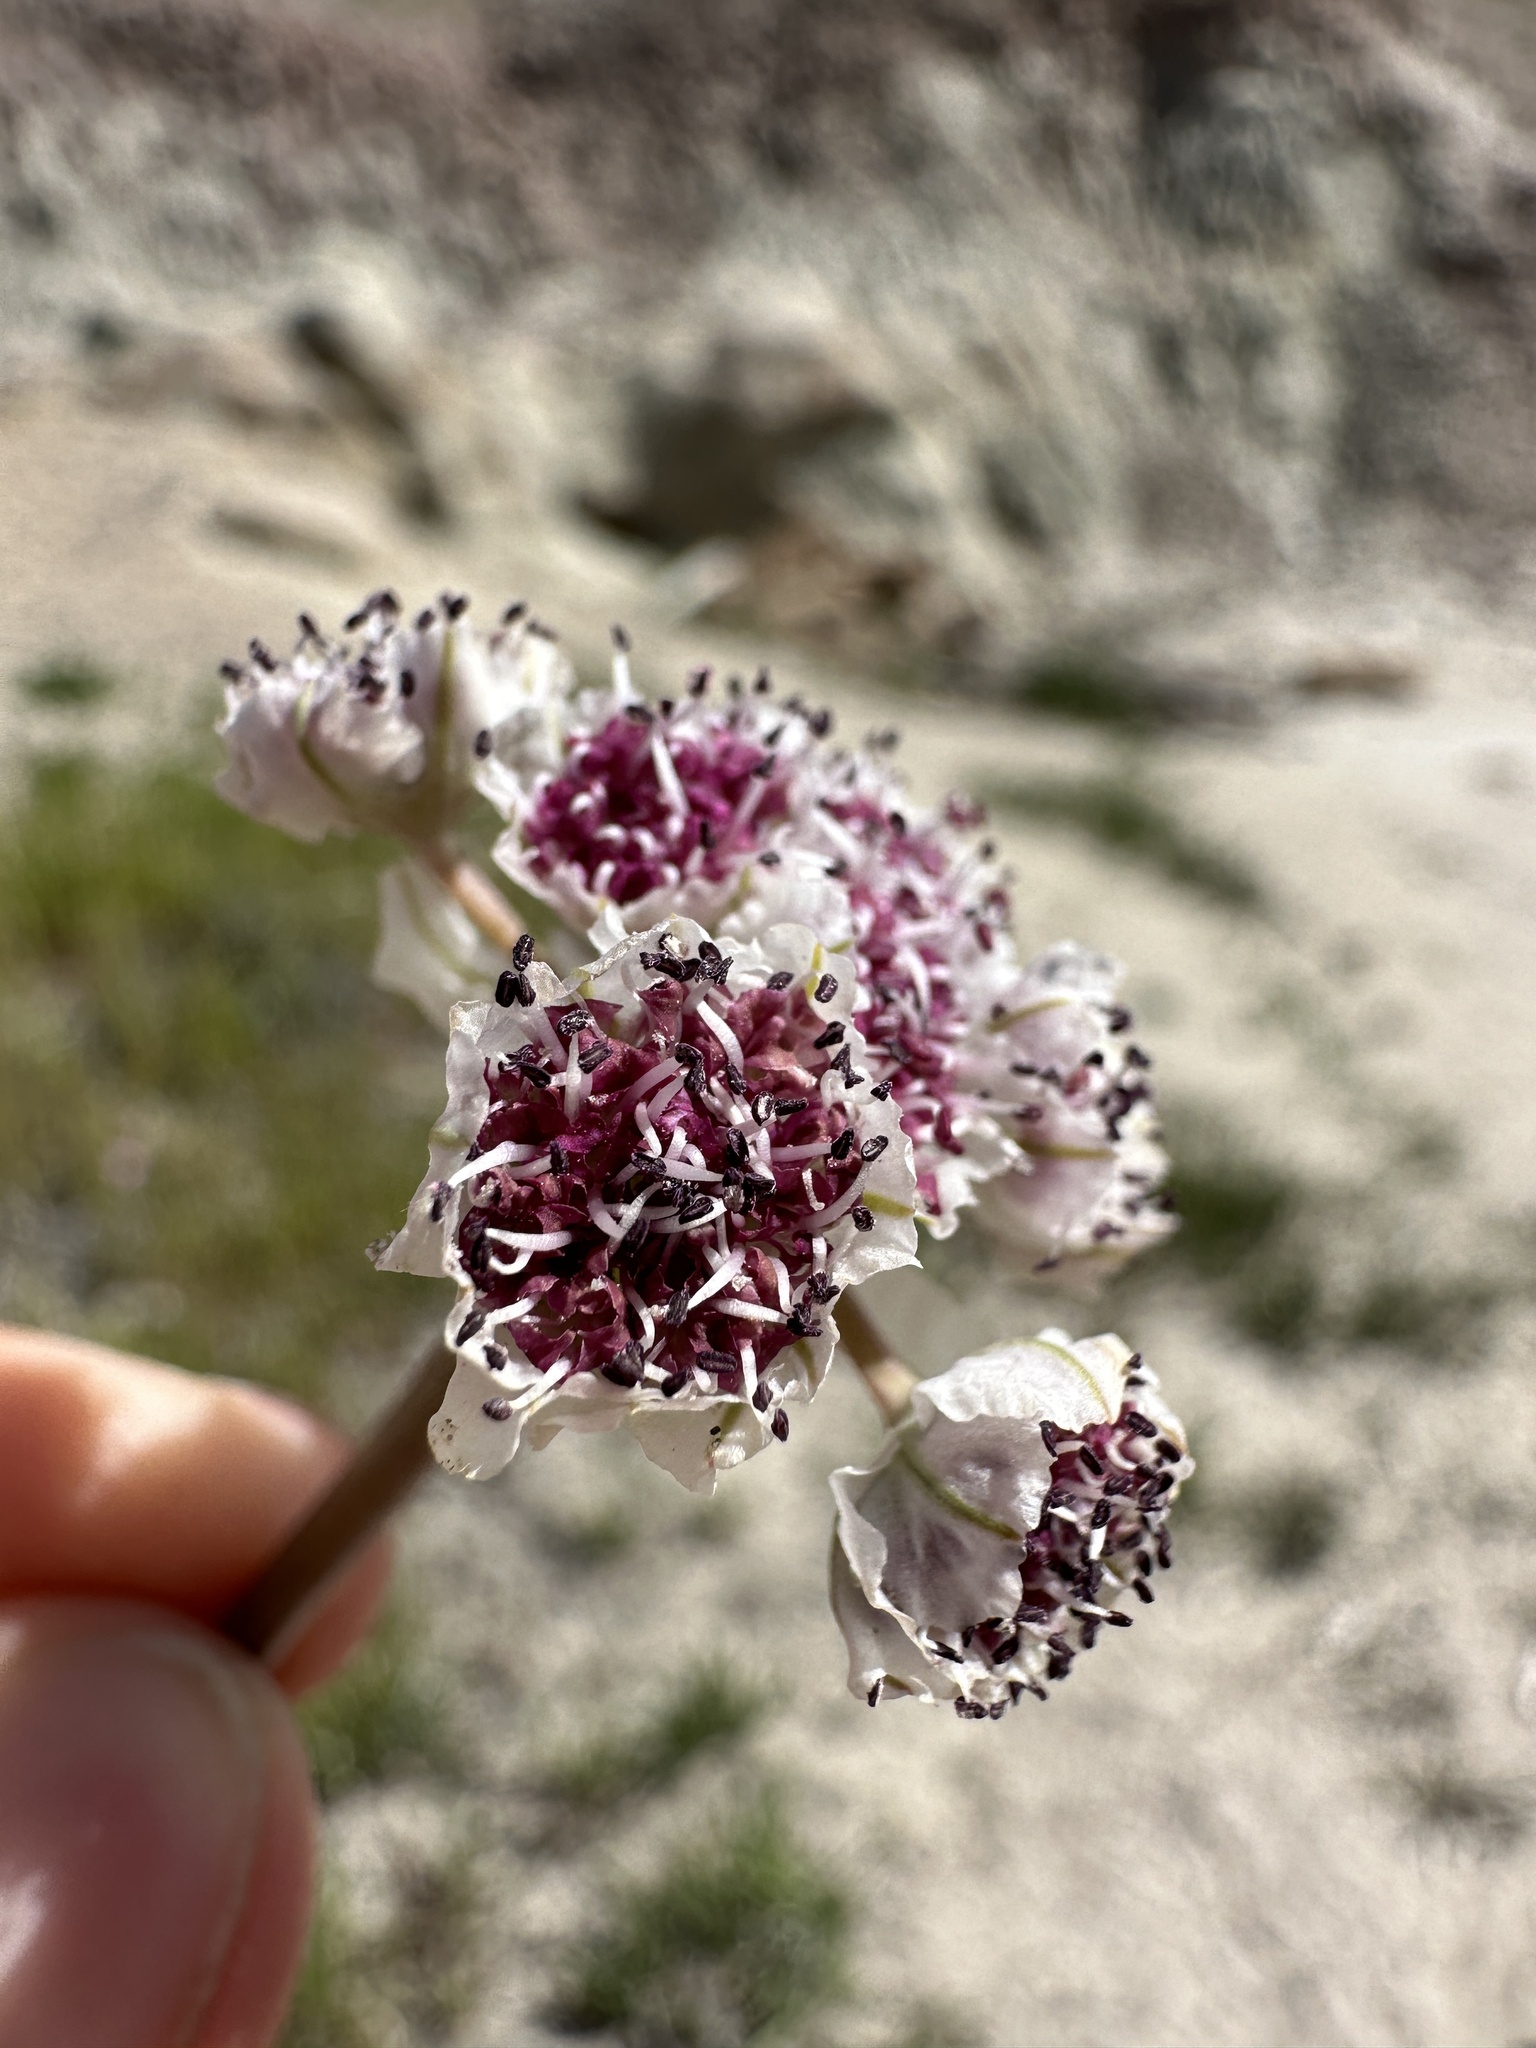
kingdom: Plantae
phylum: Tracheophyta
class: Magnoliopsida
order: Apiales
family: Apiaceae
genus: Vesper
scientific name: Vesper bulbosus
